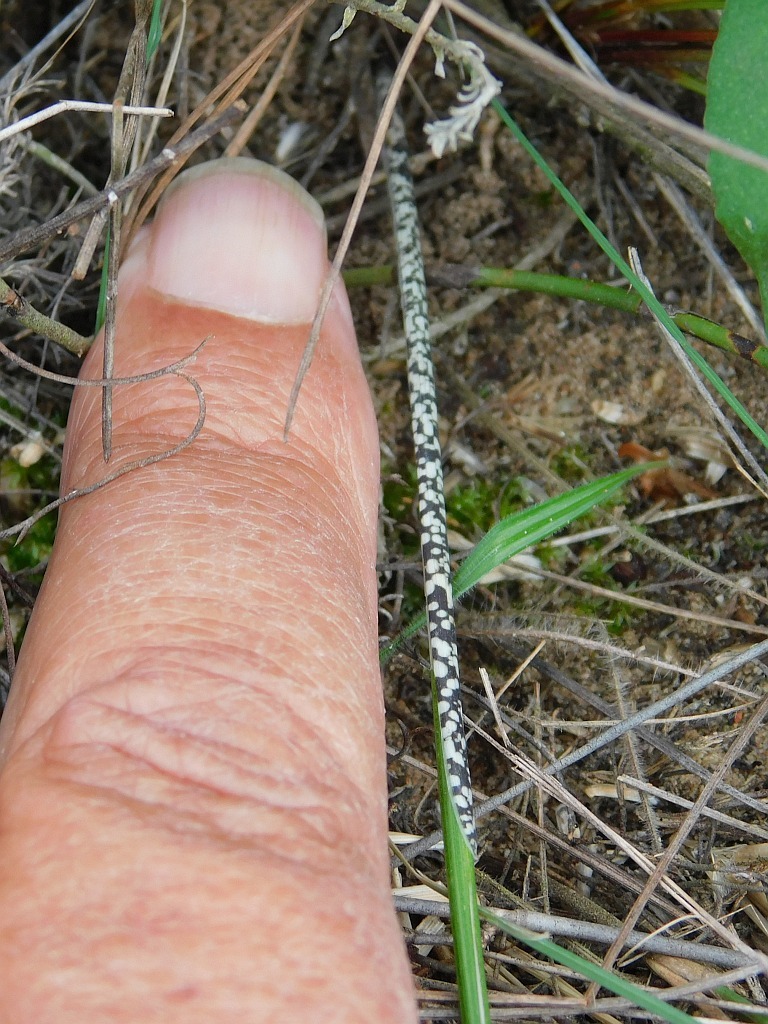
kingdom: Plantae
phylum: Tracheophyta
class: Liliopsida
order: Asparagales
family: Iridaceae
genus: Gladiolus
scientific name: Gladiolus carinatus
